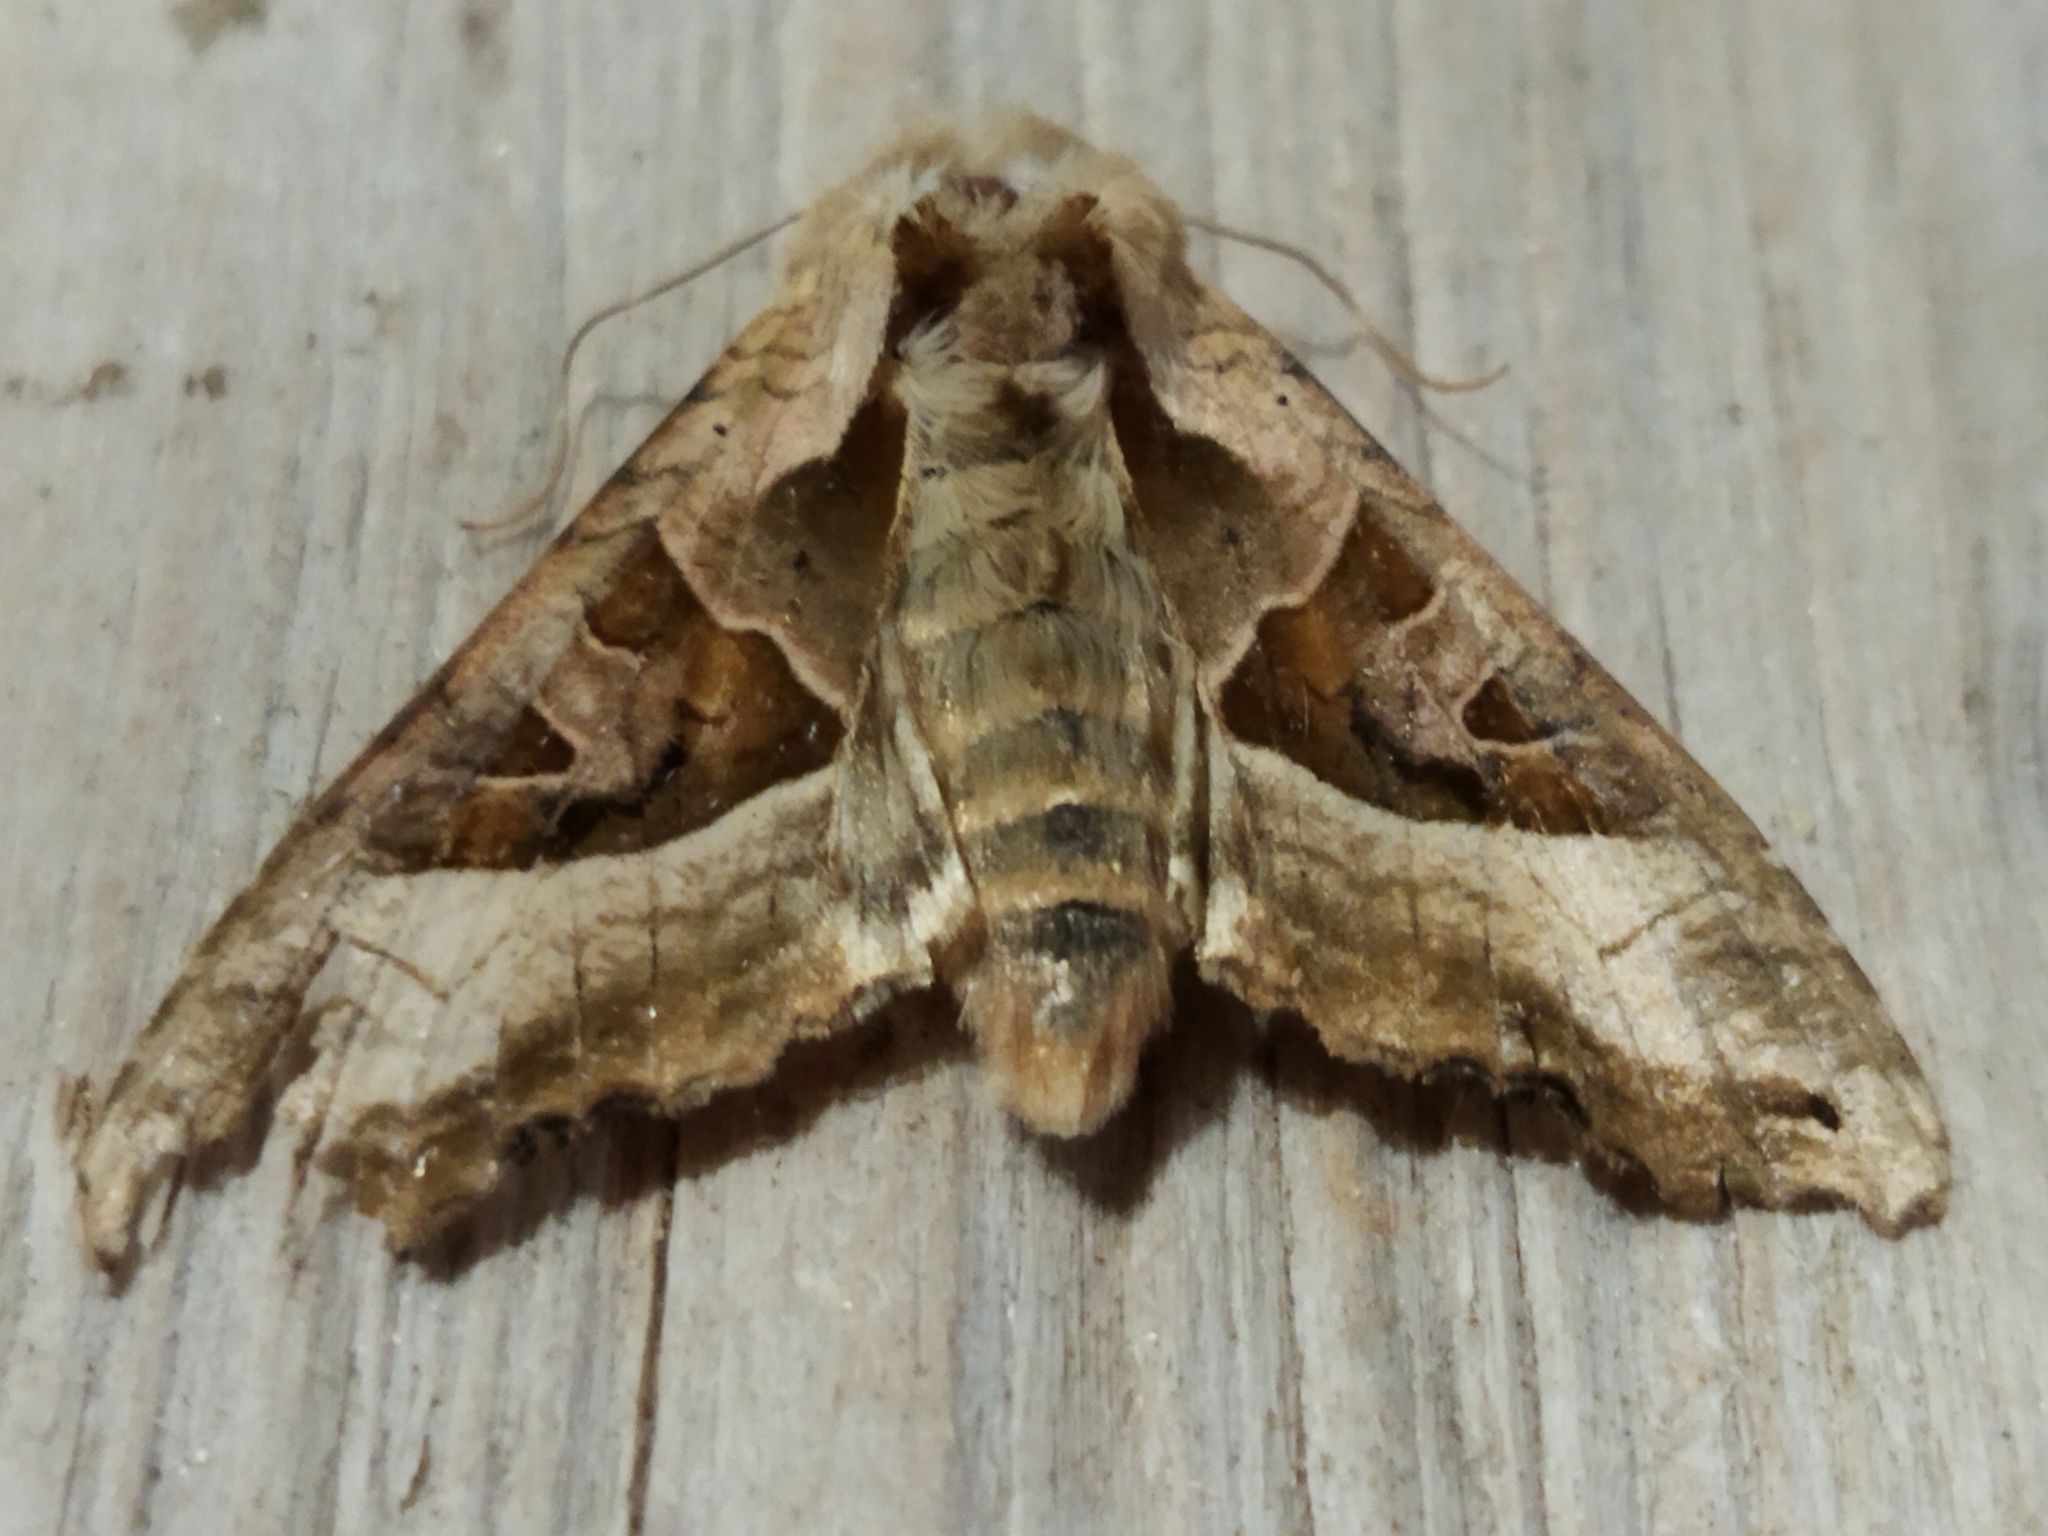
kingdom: Animalia
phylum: Arthropoda
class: Insecta
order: Lepidoptera
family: Noctuidae
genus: Phlogophora
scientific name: Phlogophora meticulosa
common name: Angle shades
